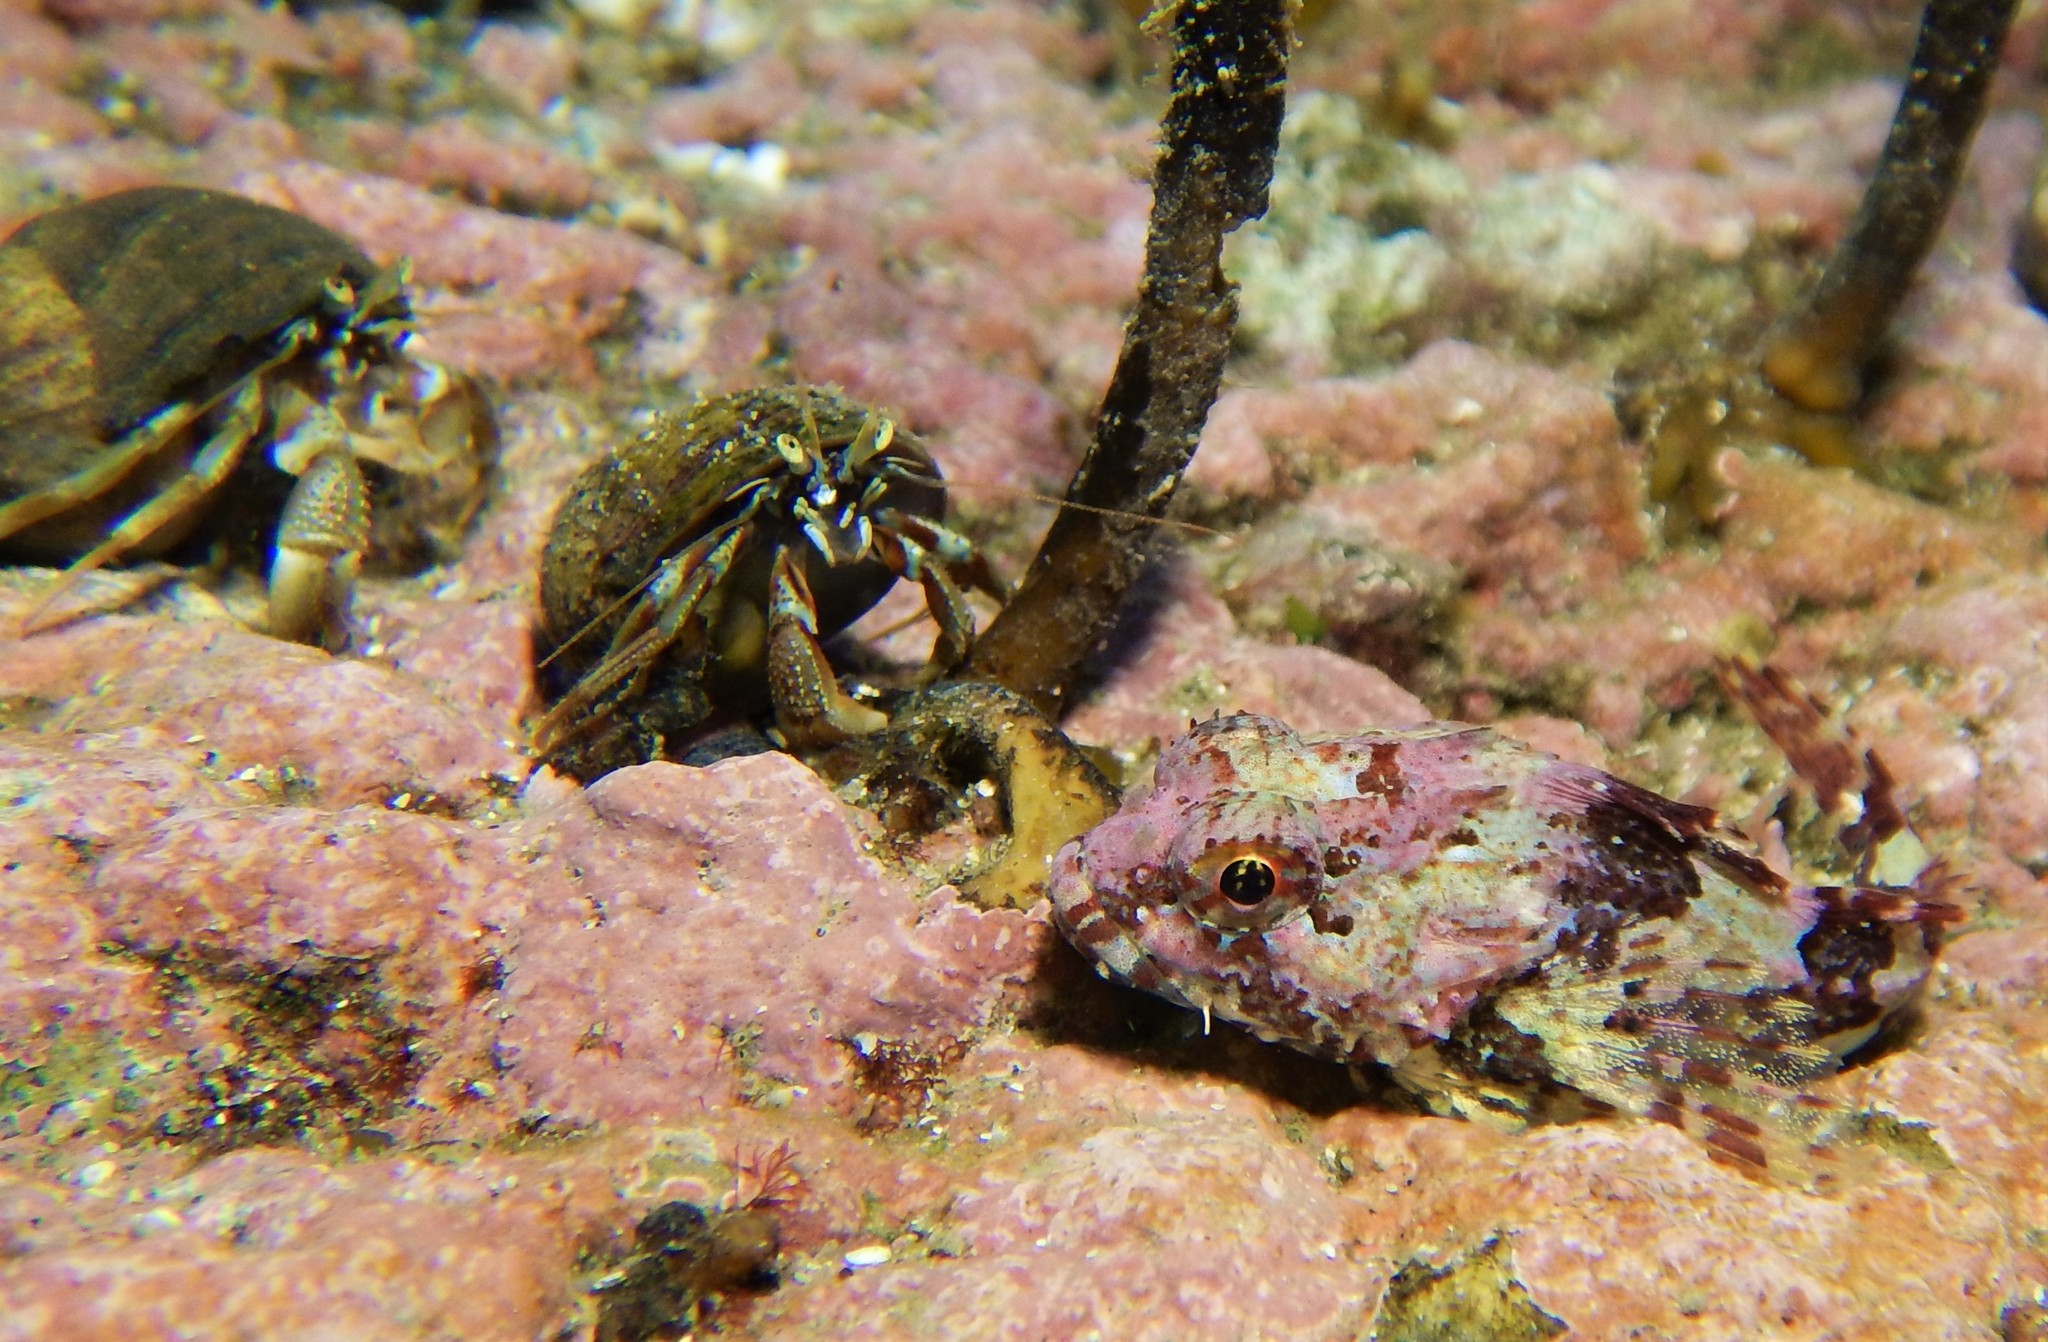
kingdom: Animalia
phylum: Chordata
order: Scorpaeniformes
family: Cottidae
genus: Taurulus
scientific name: Taurulus bubalis
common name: Sea scorpion
